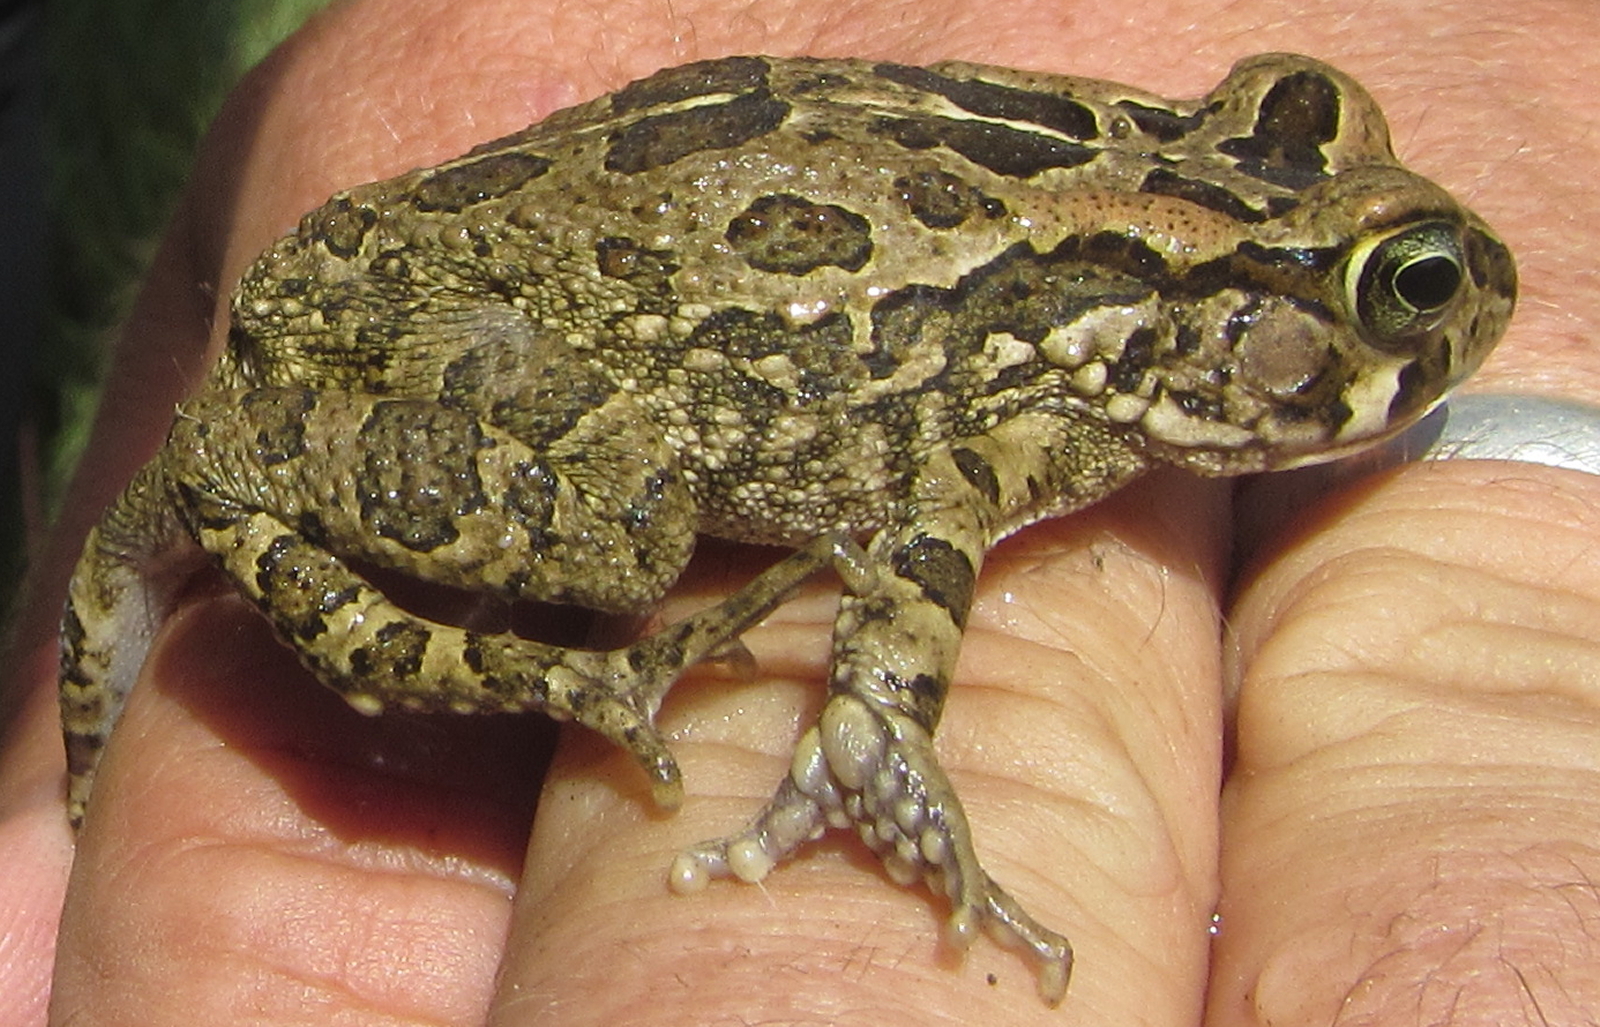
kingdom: Animalia
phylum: Chordata
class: Amphibia
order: Anura
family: Bufonidae
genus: Sclerophrys
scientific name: Sclerophrys capensis
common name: Ranger’s toad
